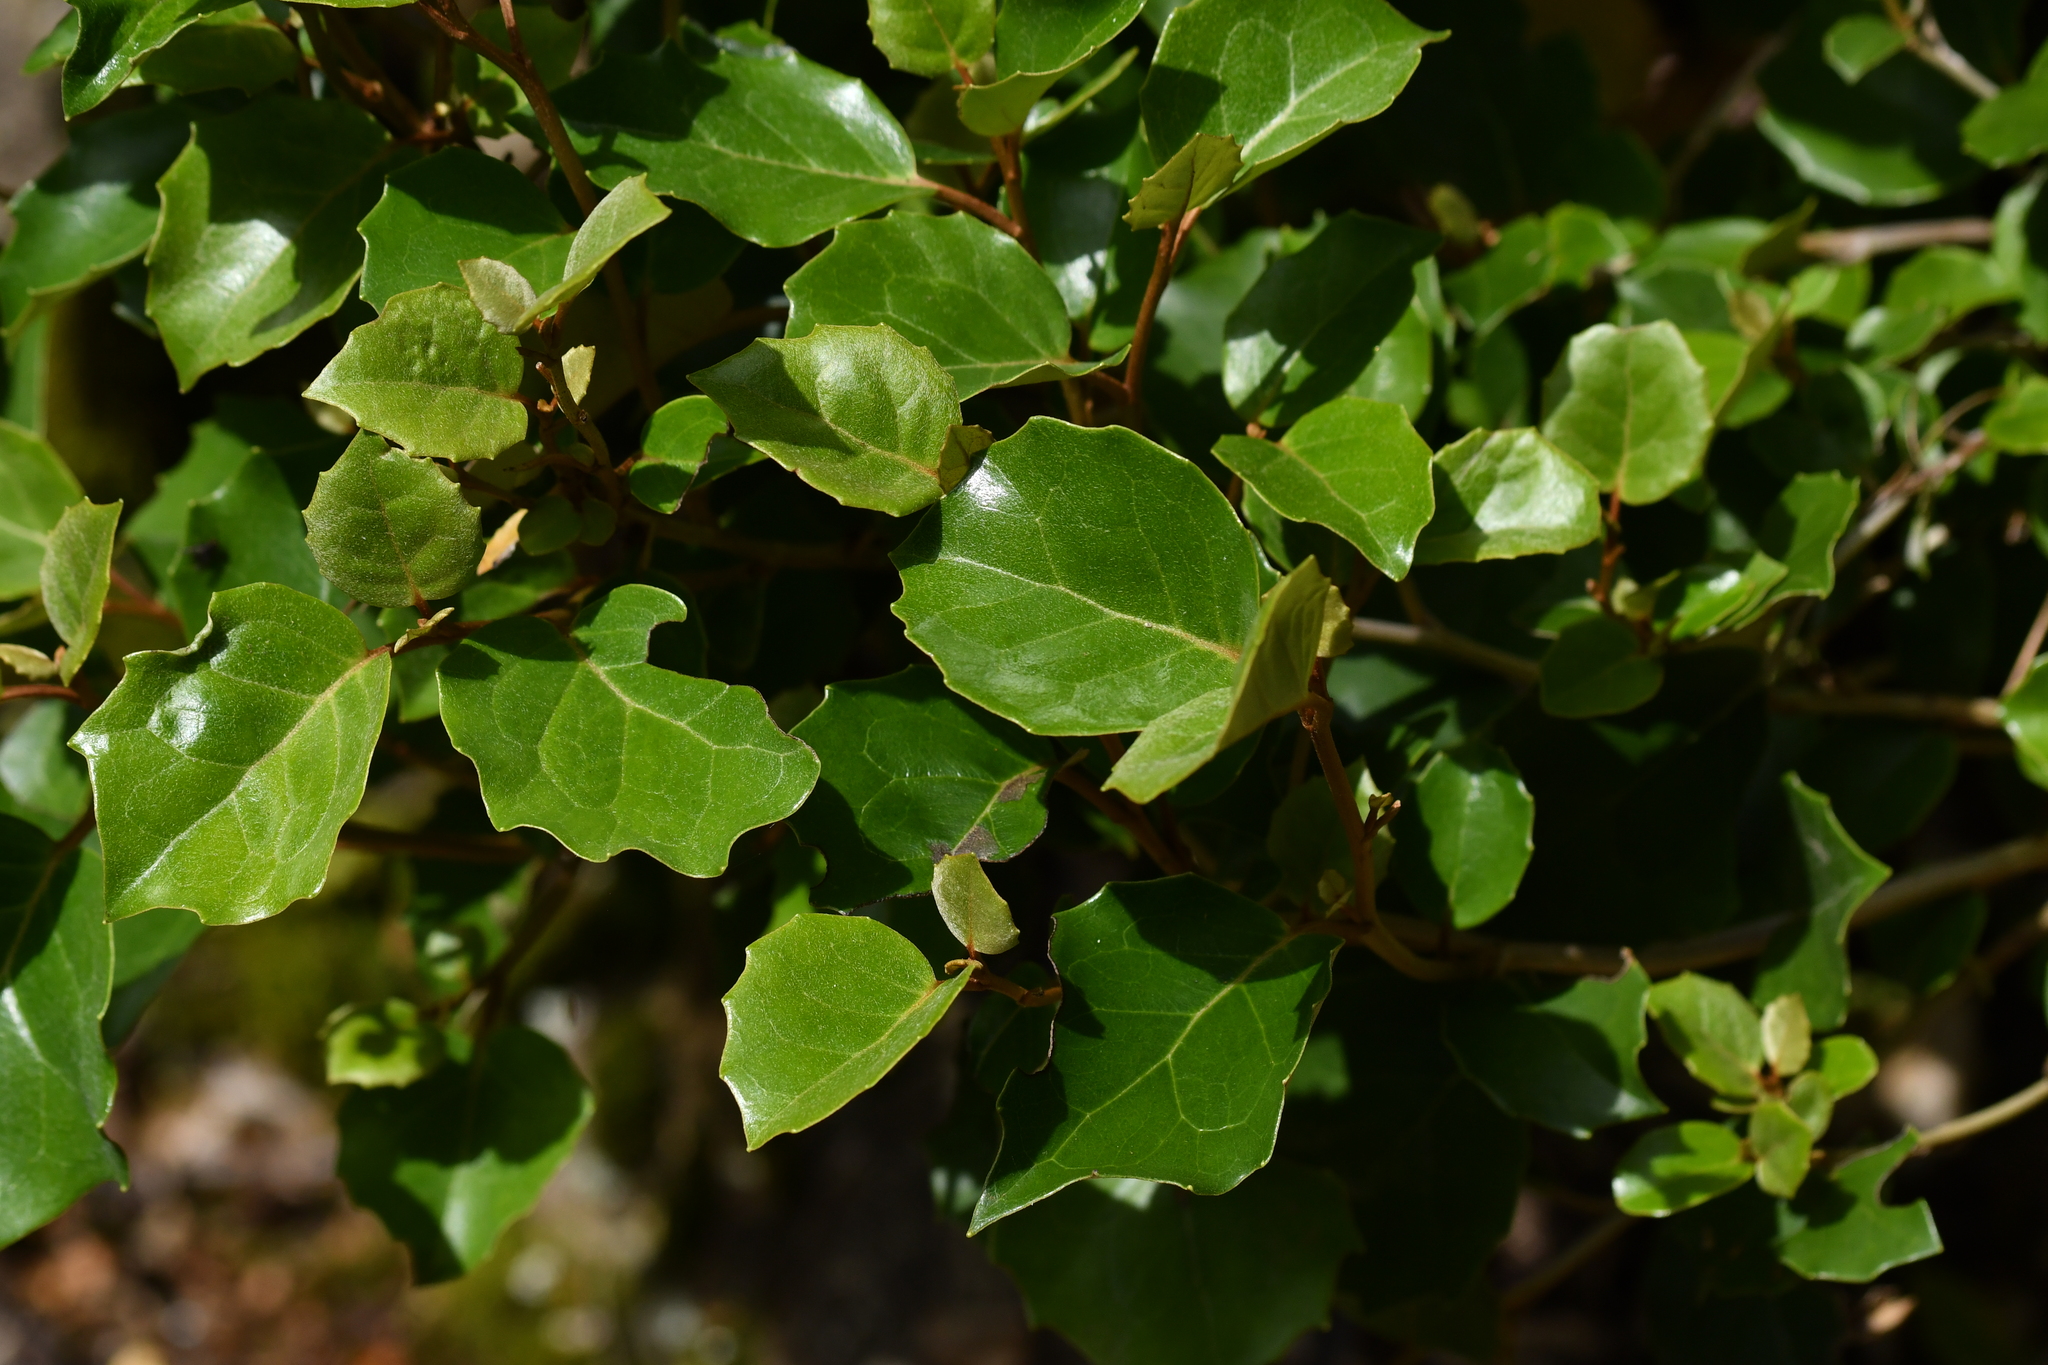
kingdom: Plantae
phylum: Tracheophyta
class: Magnoliopsida
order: Asterales
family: Asteraceae
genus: Olearia
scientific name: Olearia arborescens
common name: Glossy tree daisy
